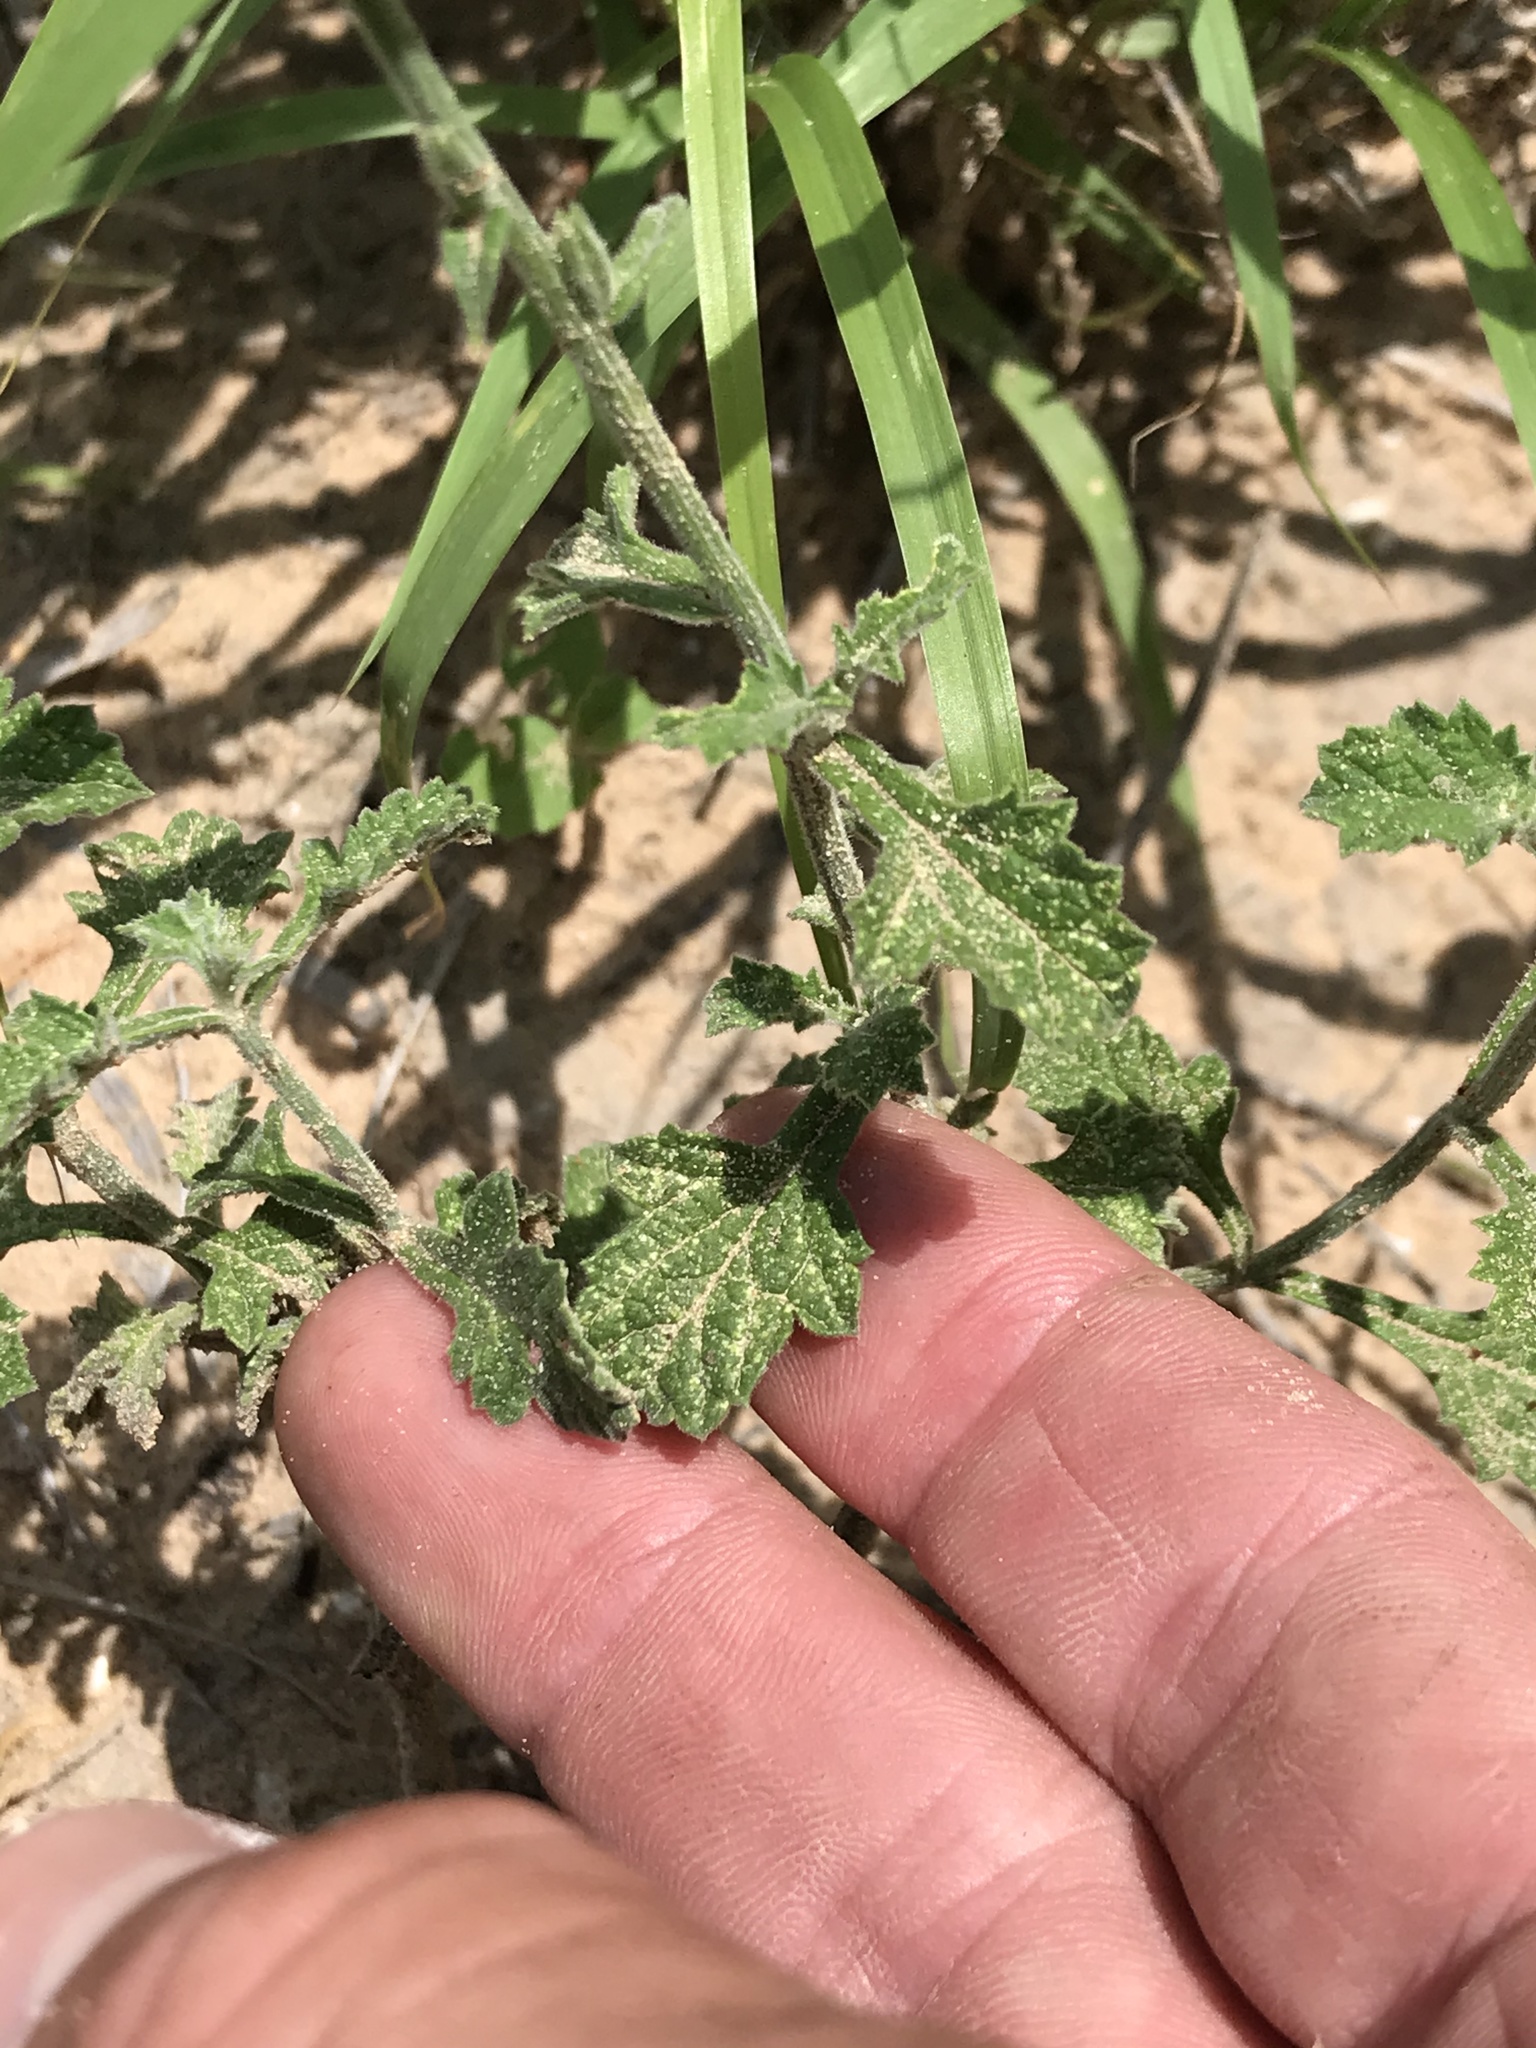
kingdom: Plantae
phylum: Tracheophyta
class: Magnoliopsida
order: Lamiales
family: Verbenaceae
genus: Verbena
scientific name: Verbena halei
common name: Texas vervain
